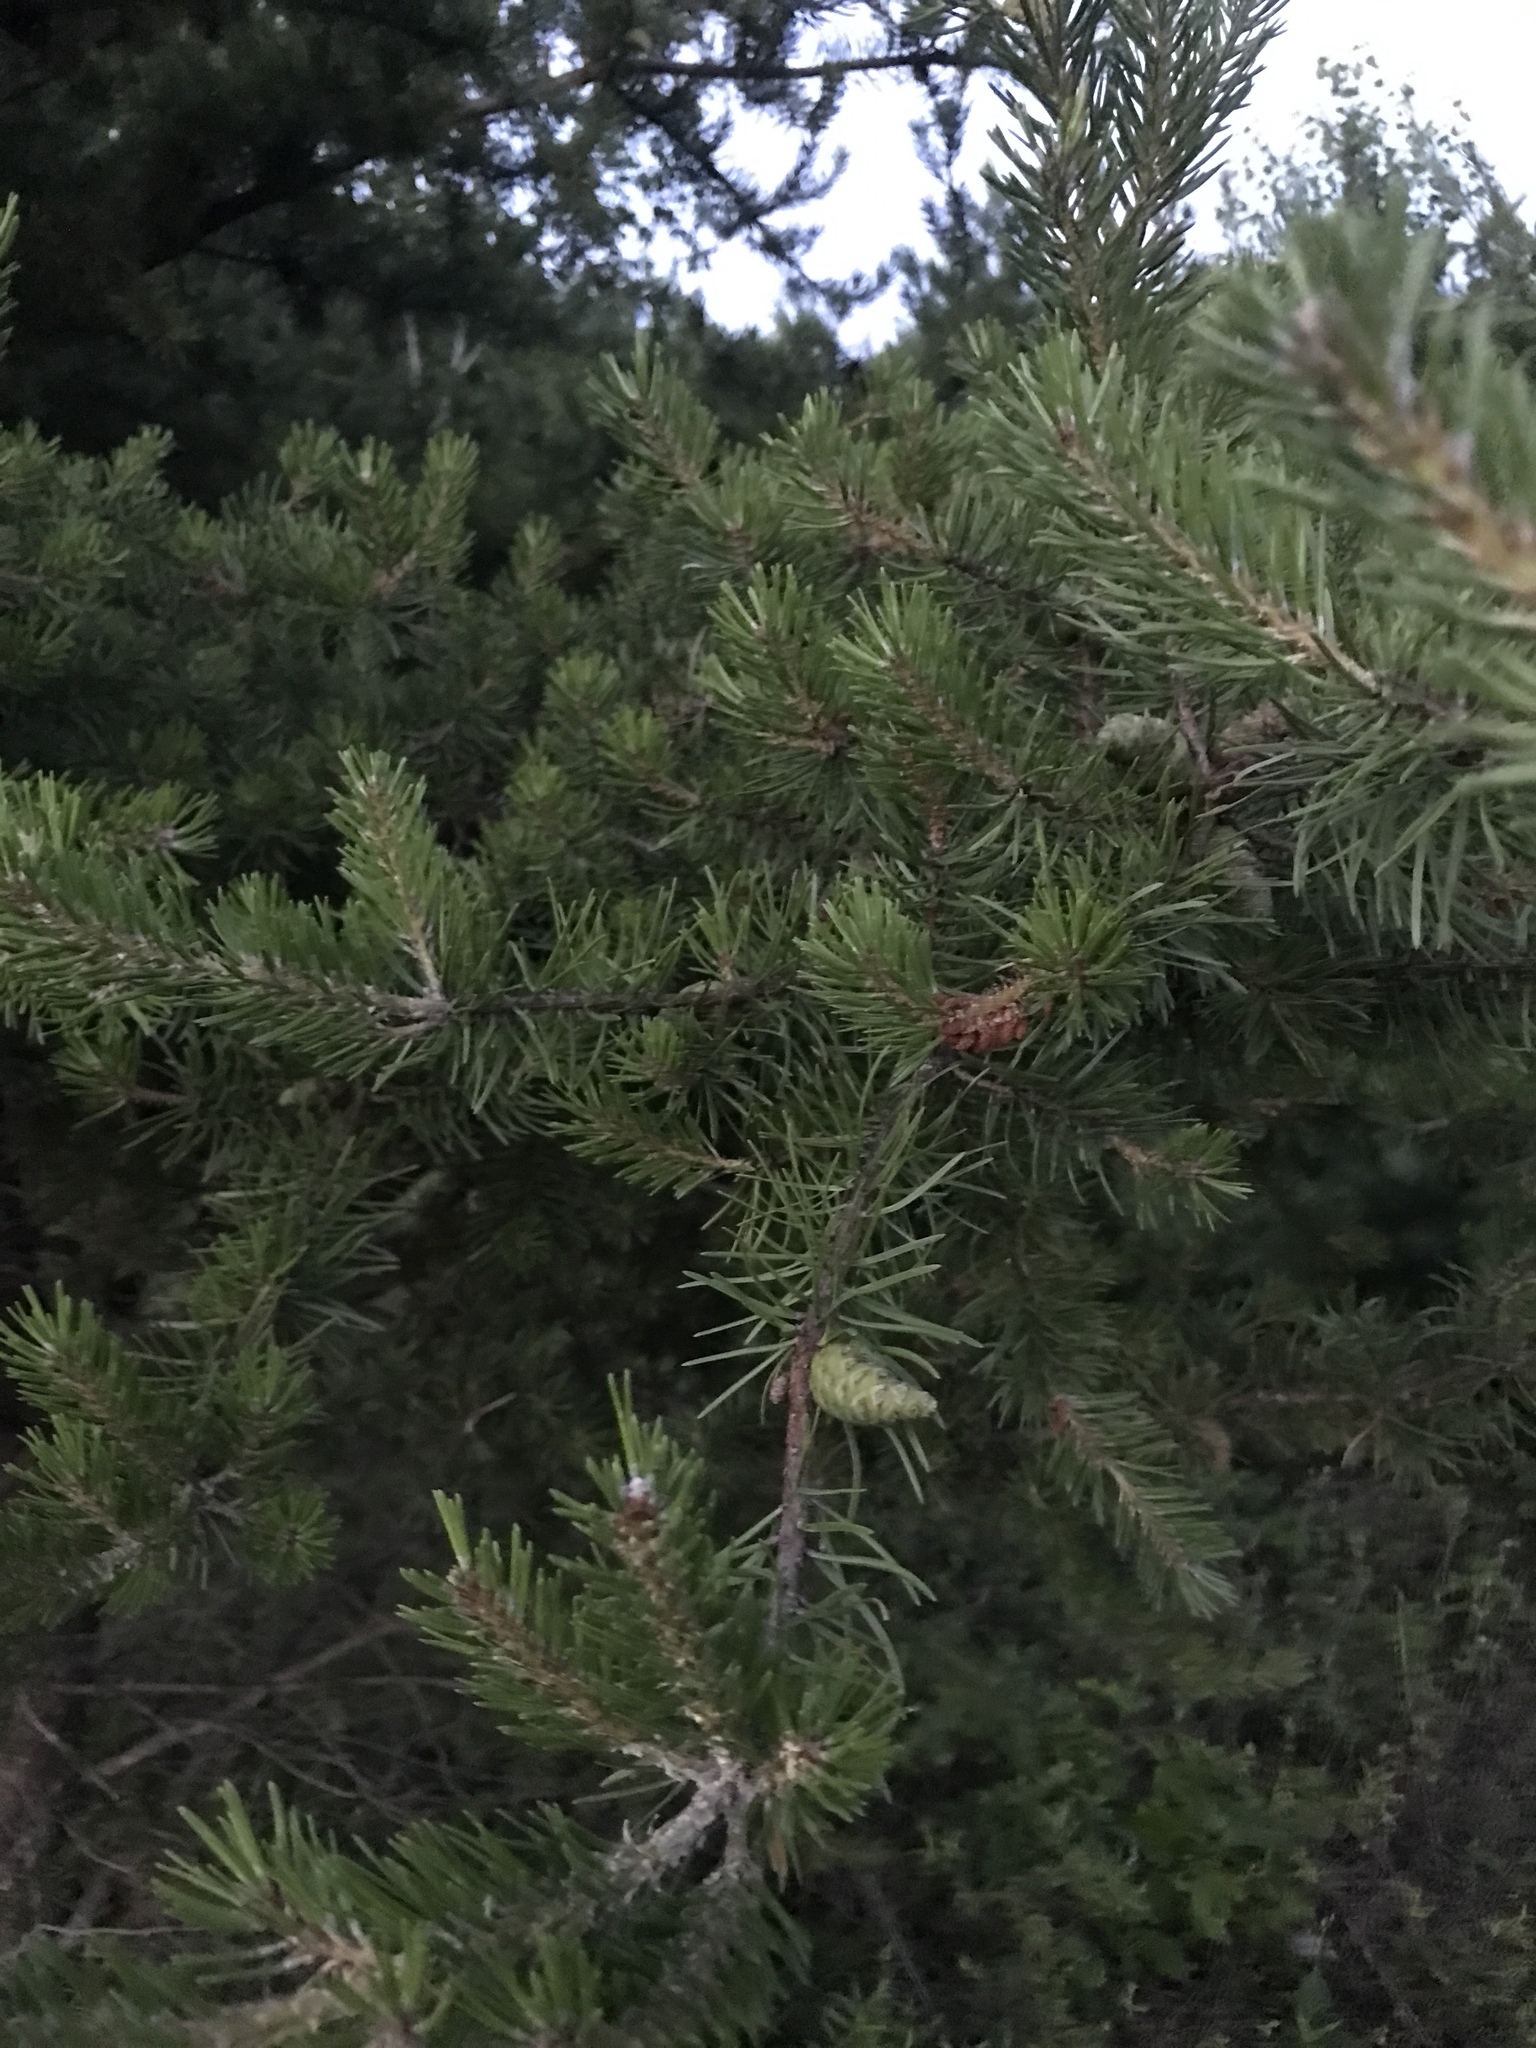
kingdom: Plantae
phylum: Tracheophyta
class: Pinopsida
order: Pinales
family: Pinaceae
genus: Pinus
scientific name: Pinus banksiana
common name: Jack pine
